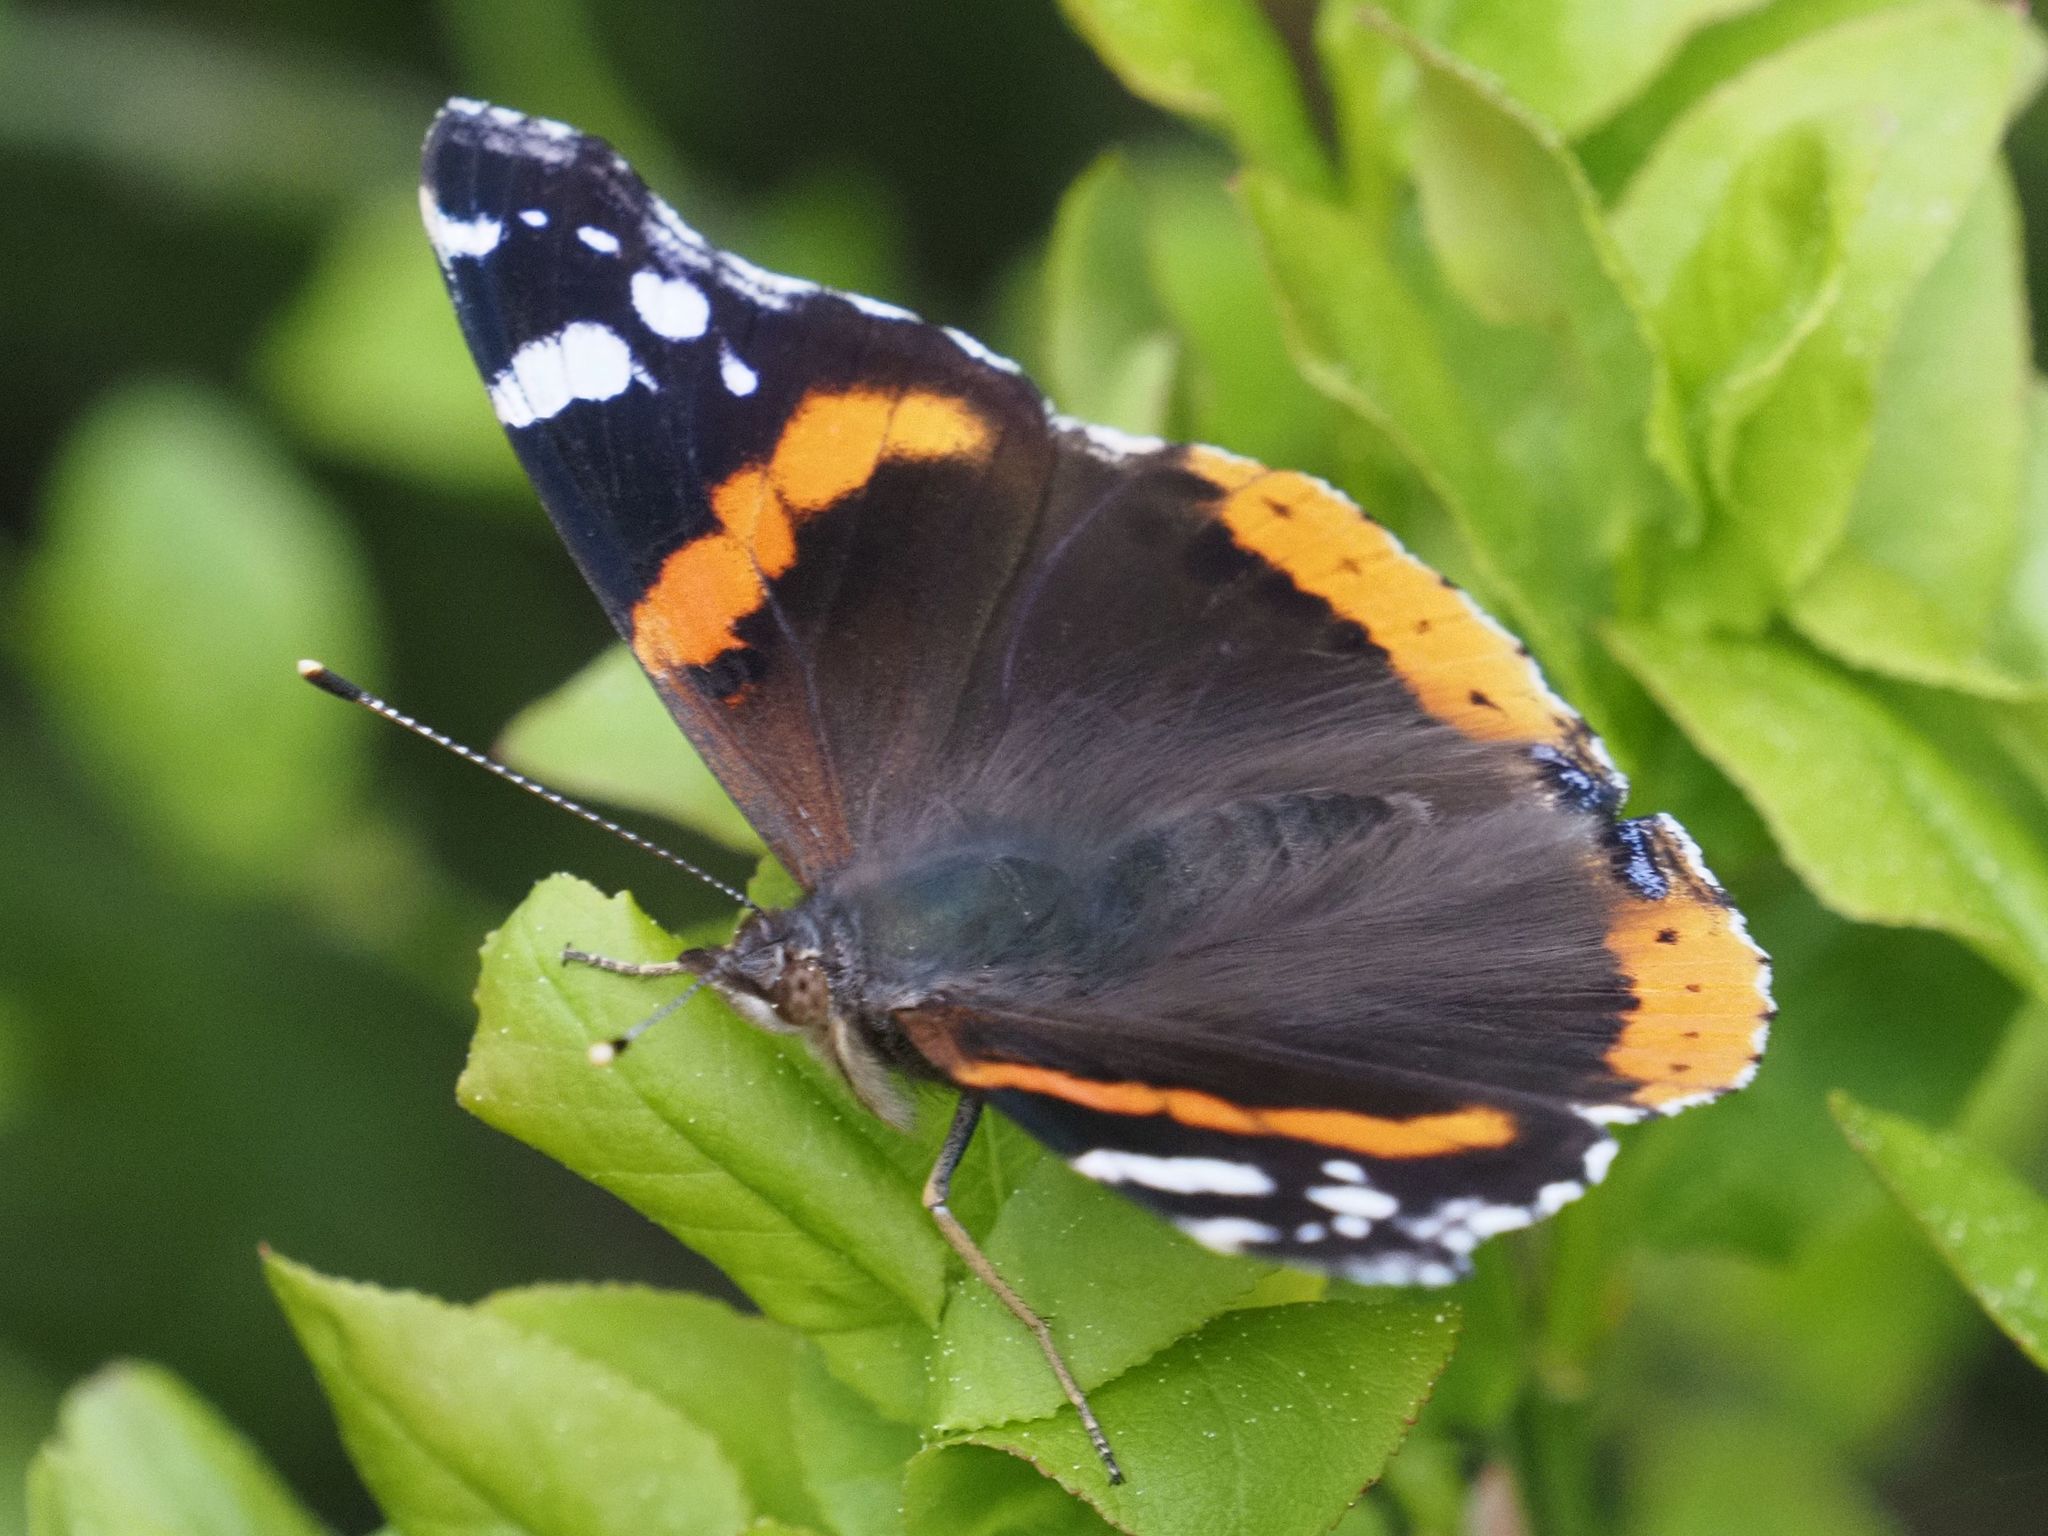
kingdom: Animalia
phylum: Arthropoda
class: Insecta
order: Lepidoptera
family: Nymphalidae
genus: Vanessa
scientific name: Vanessa atalanta
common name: Red admiral
